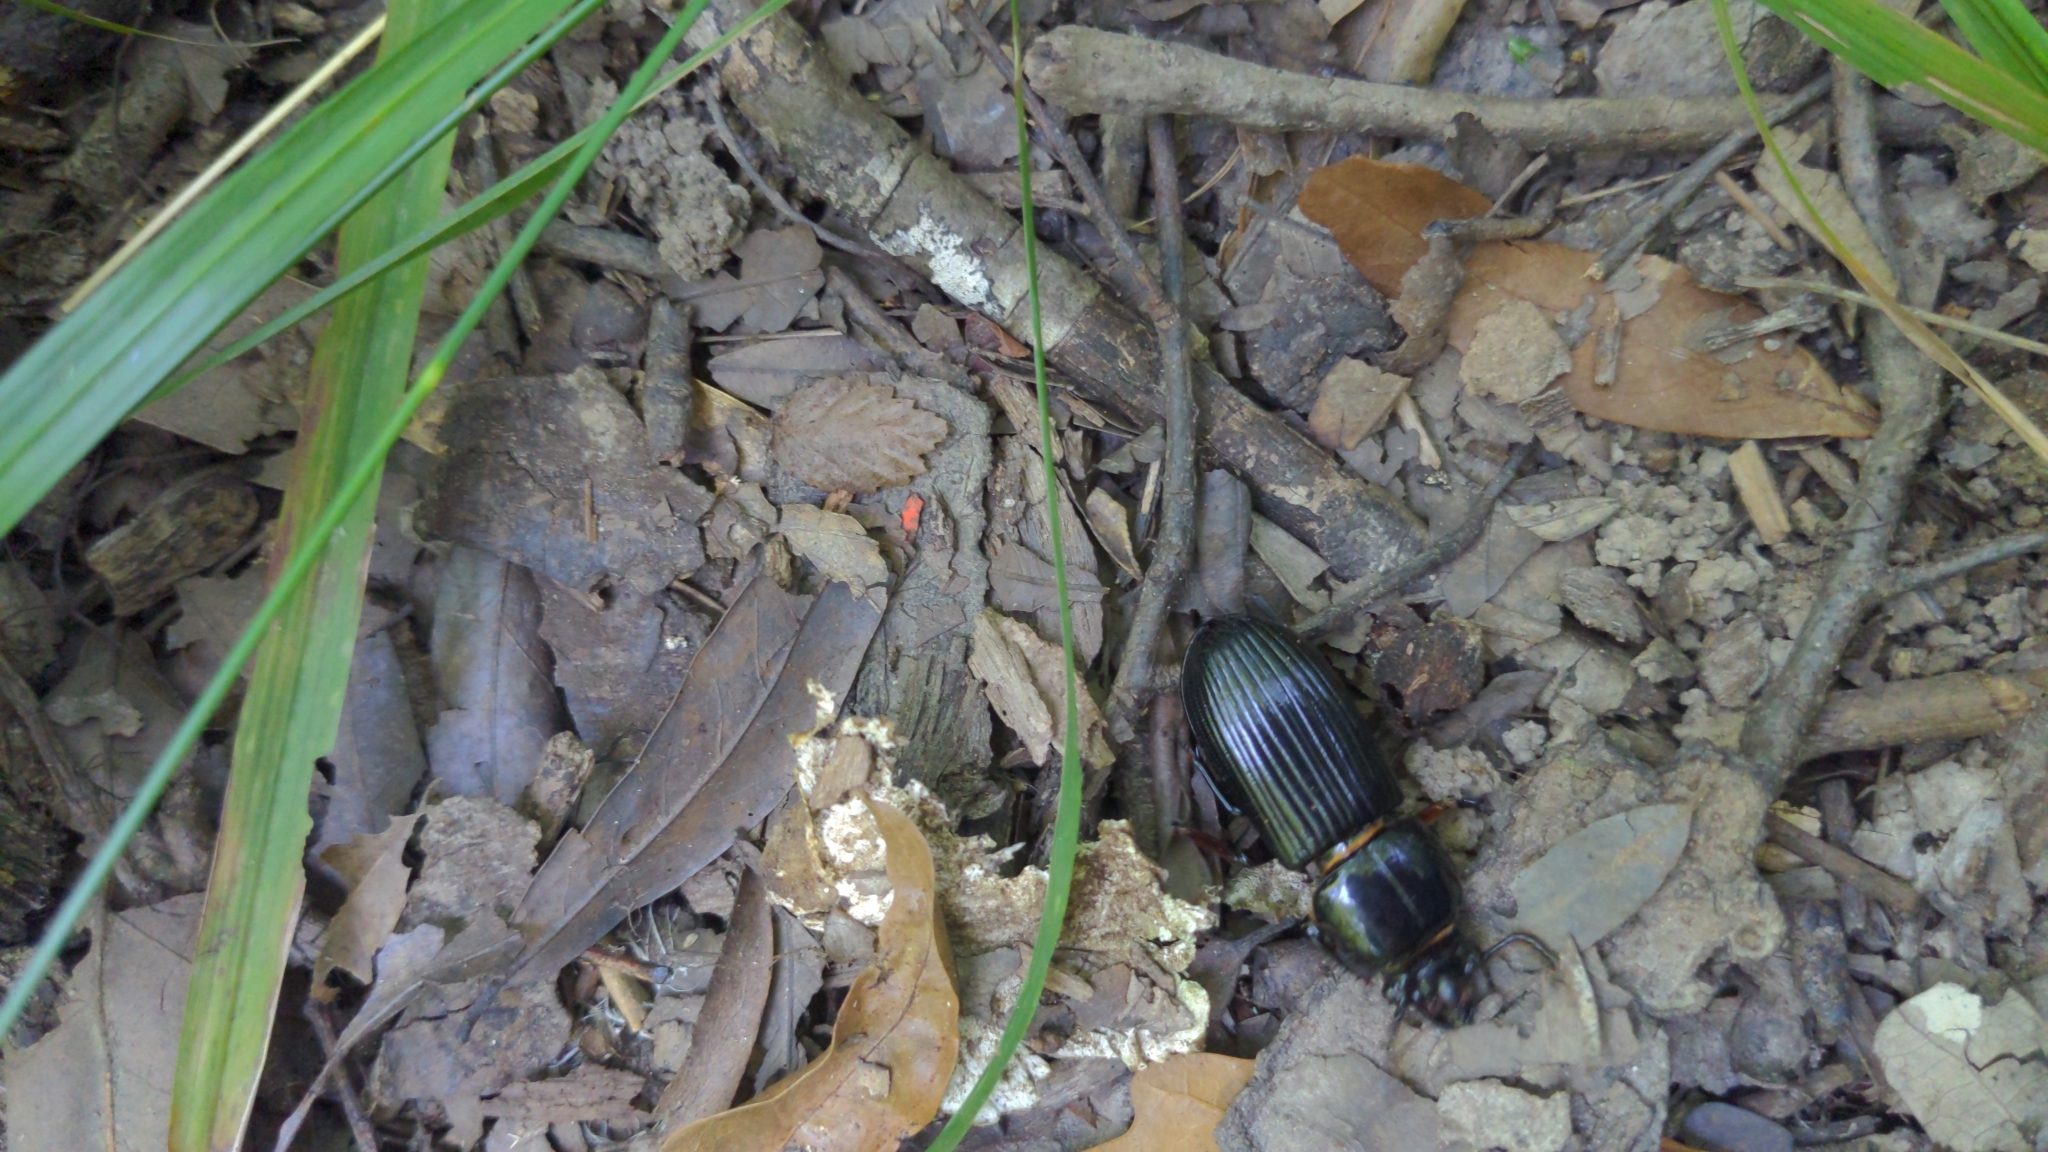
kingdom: Animalia
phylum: Arthropoda
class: Insecta
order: Coleoptera
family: Passalidae
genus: Odontotaenius
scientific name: Odontotaenius disjunctus
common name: Patent leather beetle
